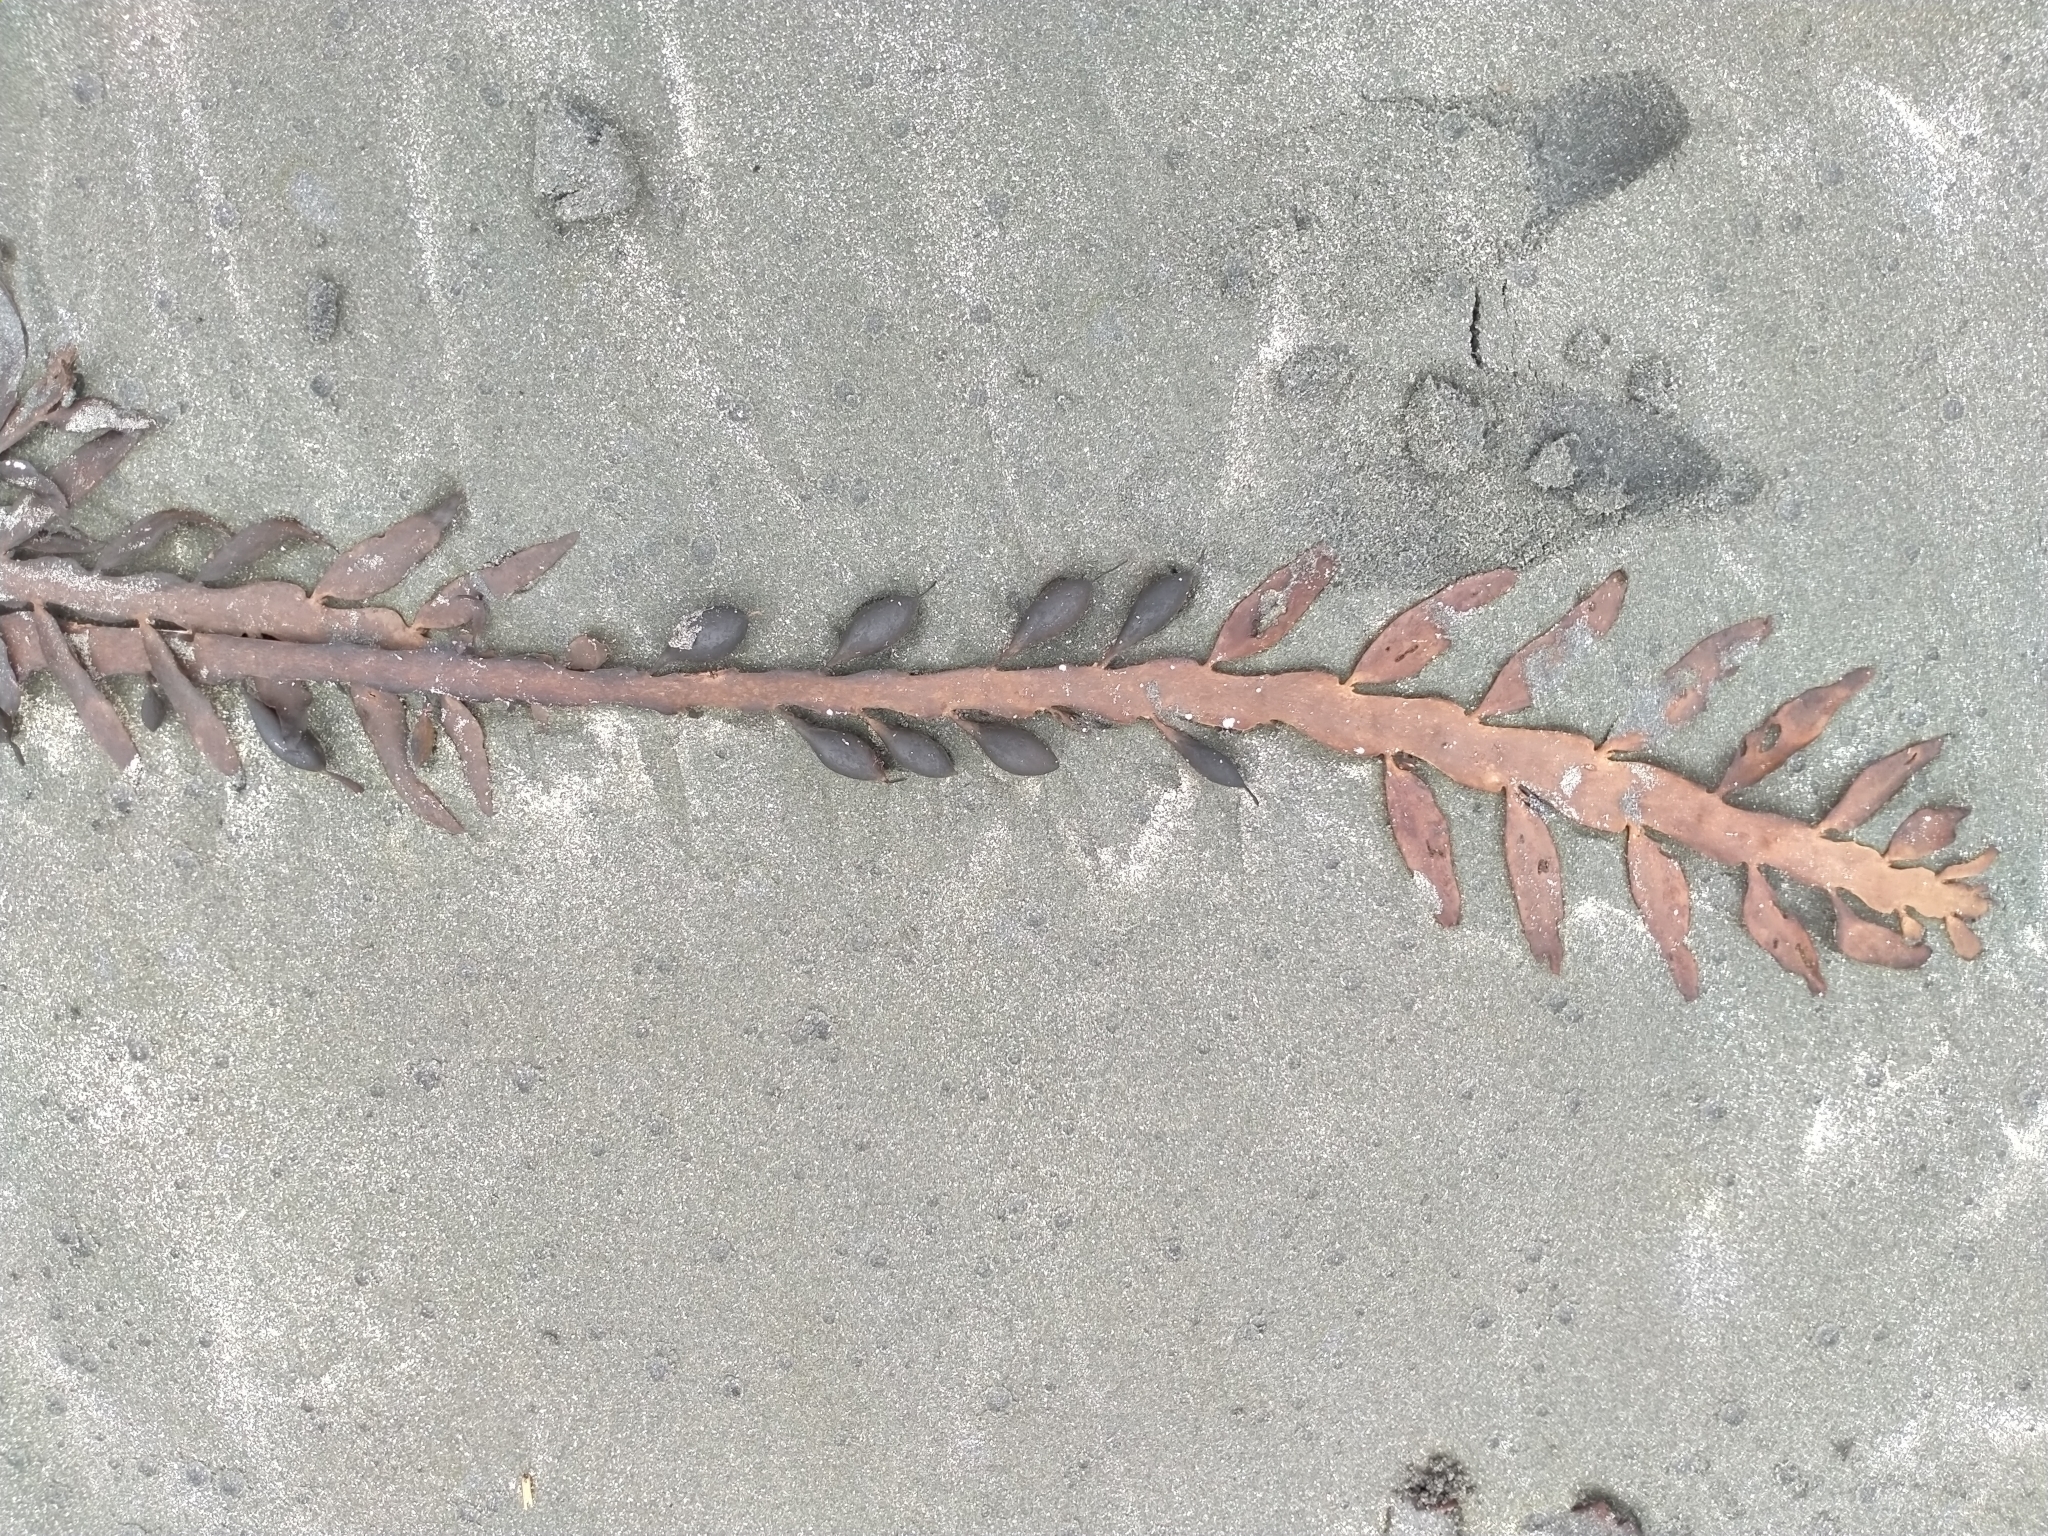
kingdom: Chromista
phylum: Ochrophyta
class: Phaeophyceae
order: Fucales
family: Sargassaceae
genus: Carpophyllum
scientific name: Carpophyllum maschalocarpum
